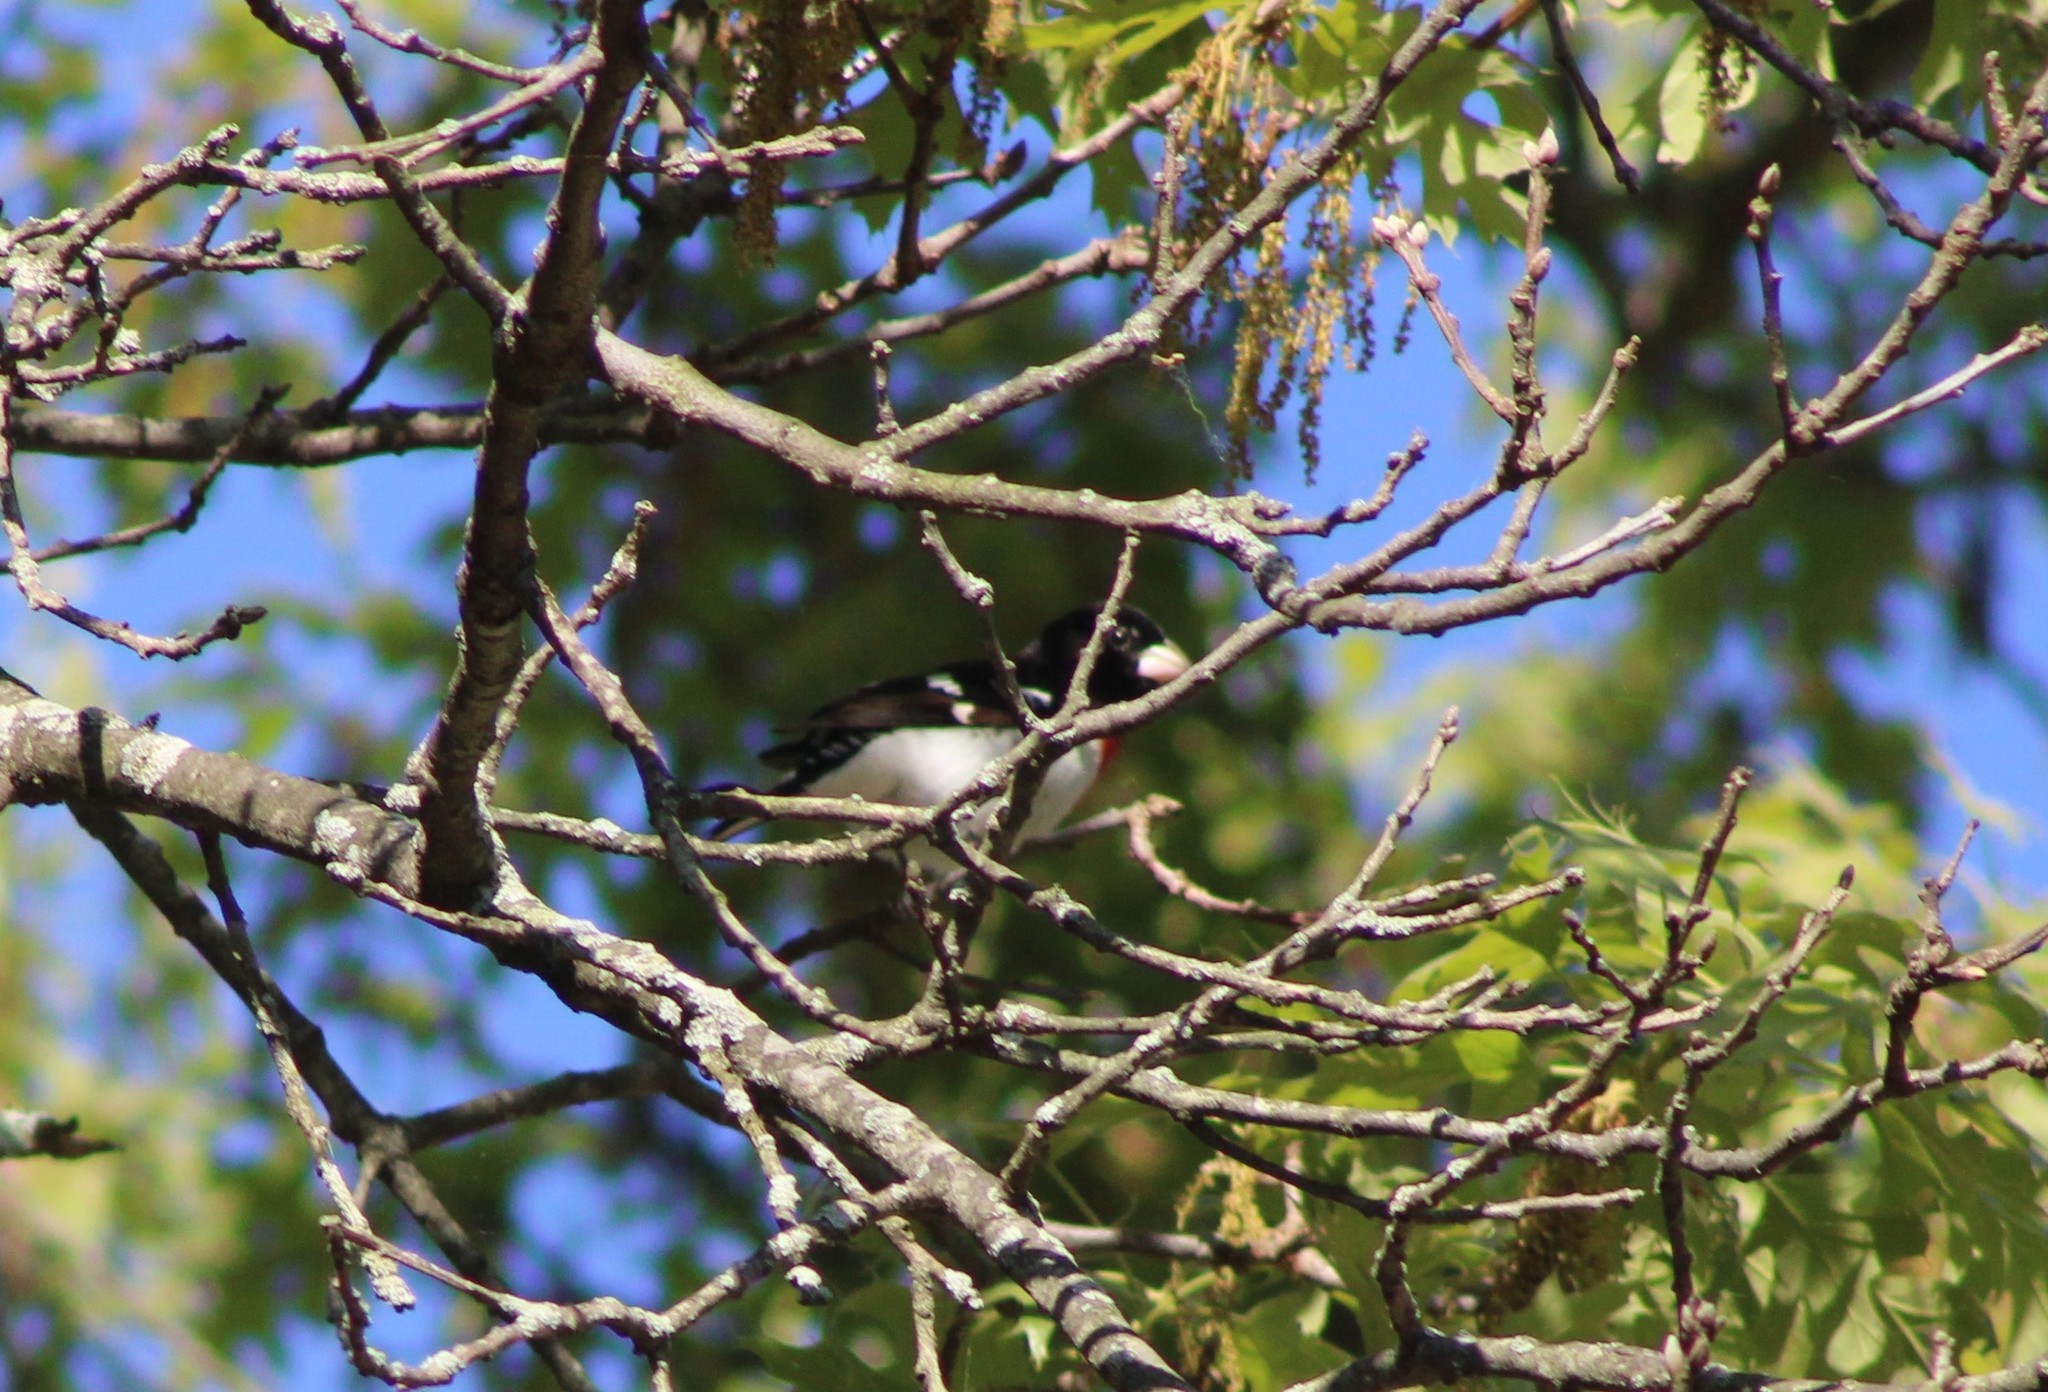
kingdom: Animalia
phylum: Chordata
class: Aves
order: Passeriformes
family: Cardinalidae
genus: Pheucticus
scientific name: Pheucticus ludovicianus
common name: Rose-breasted grosbeak
